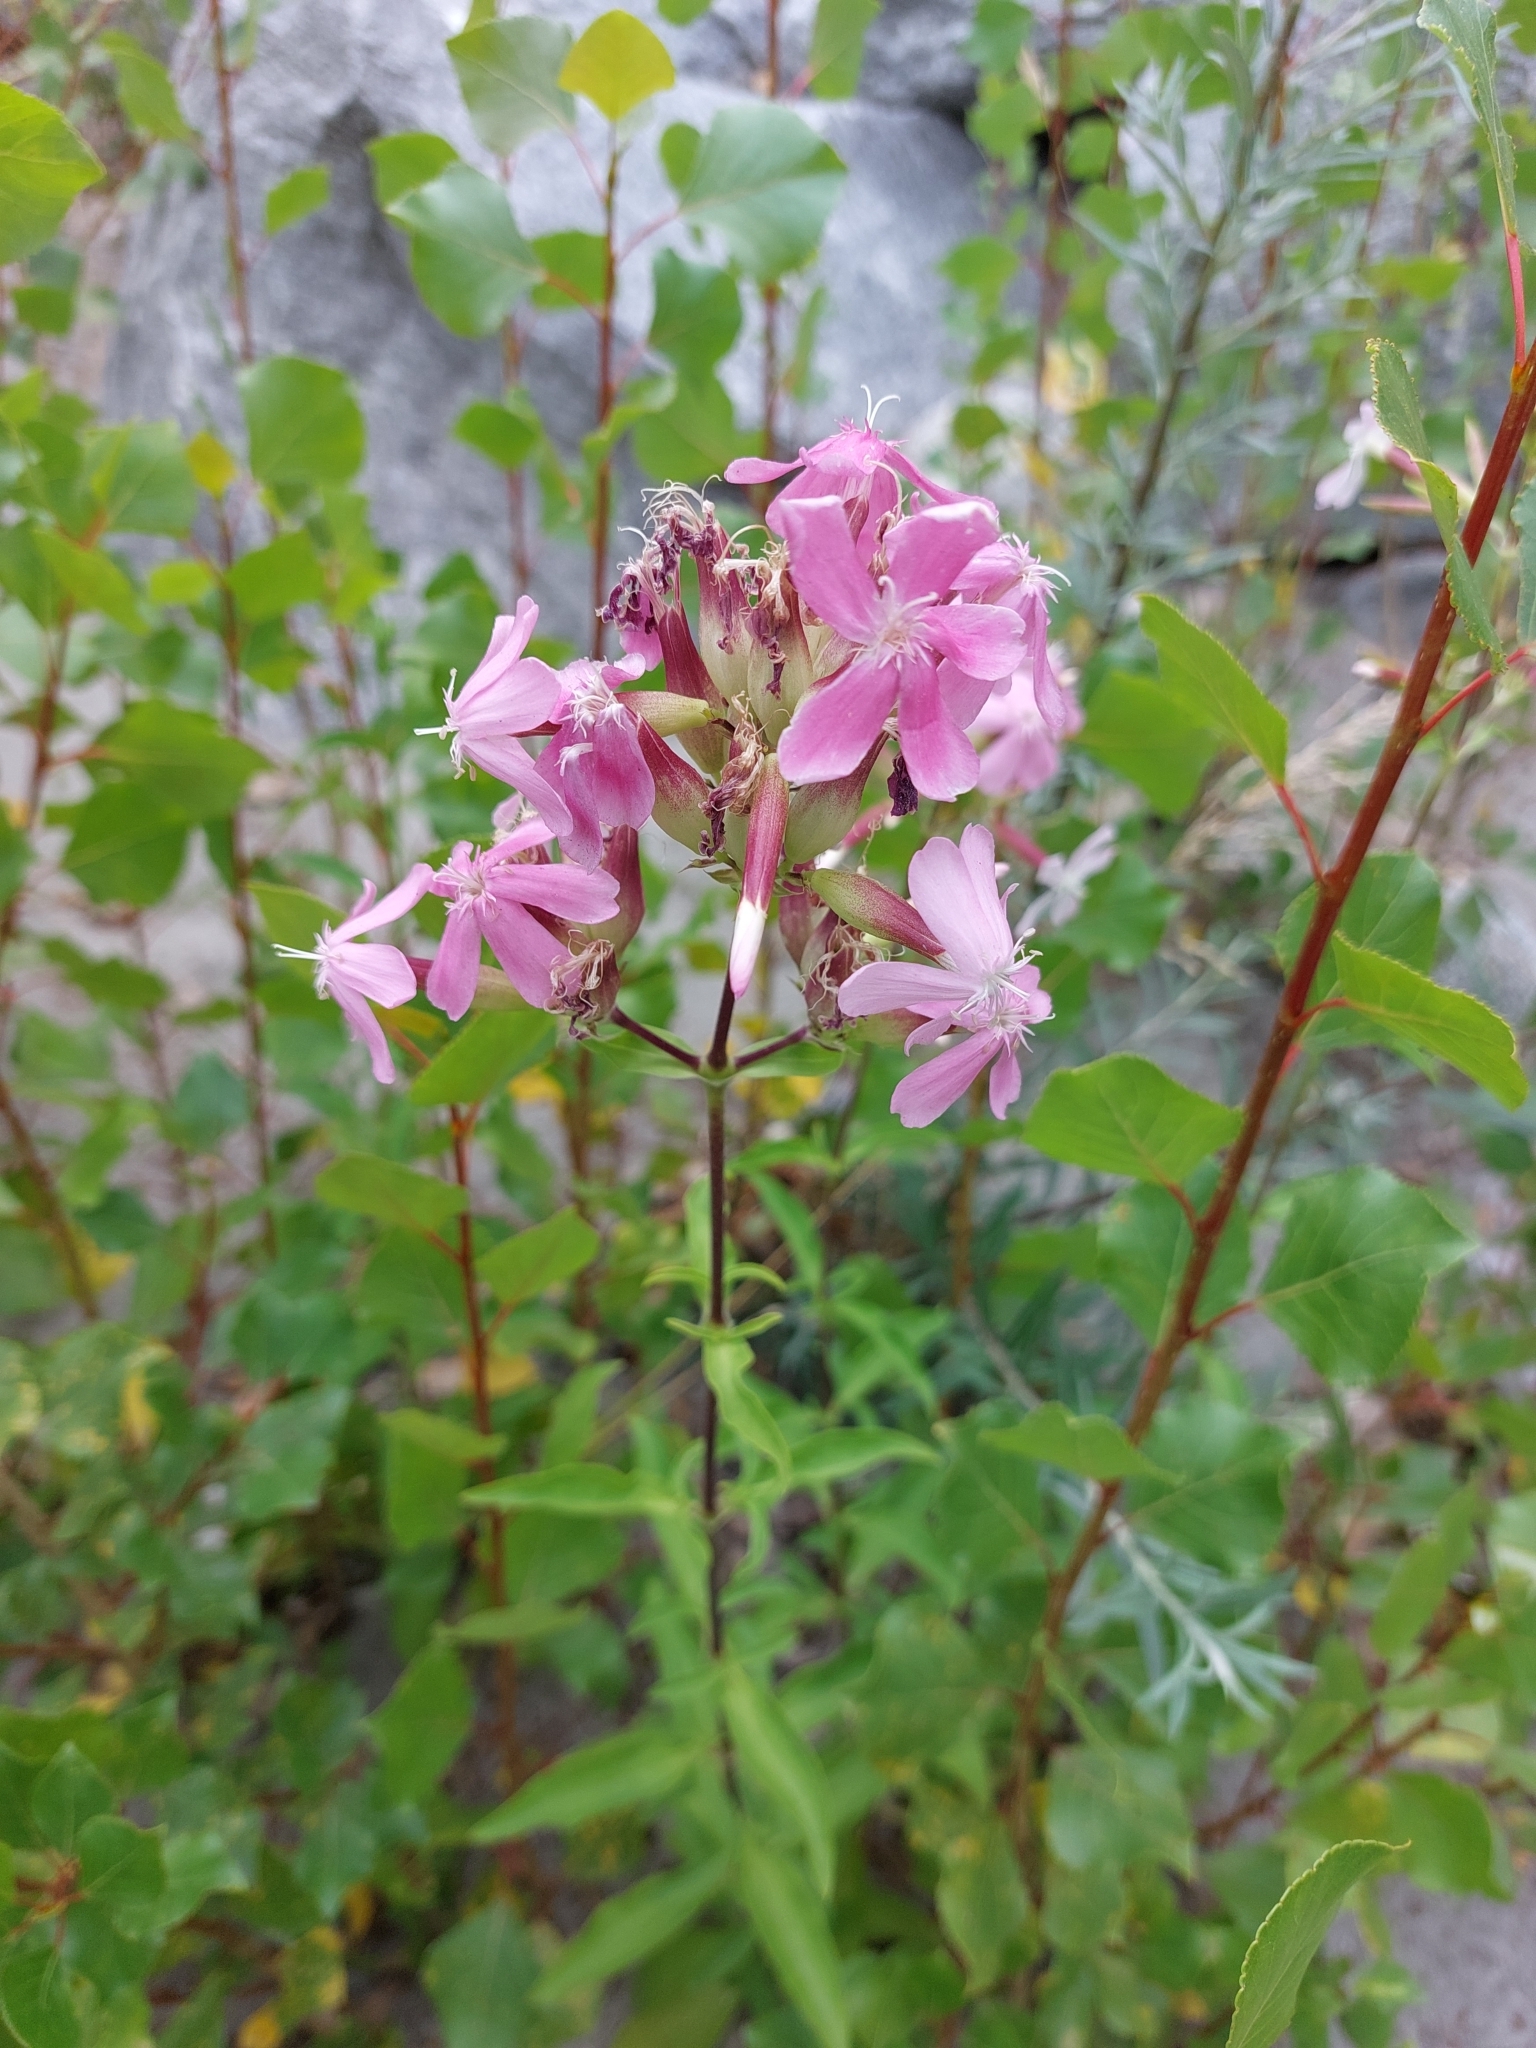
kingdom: Plantae
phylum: Tracheophyta
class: Magnoliopsida
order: Caryophyllales
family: Caryophyllaceae
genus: Saponaria
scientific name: Saponaria officinalis
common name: Soapwort
